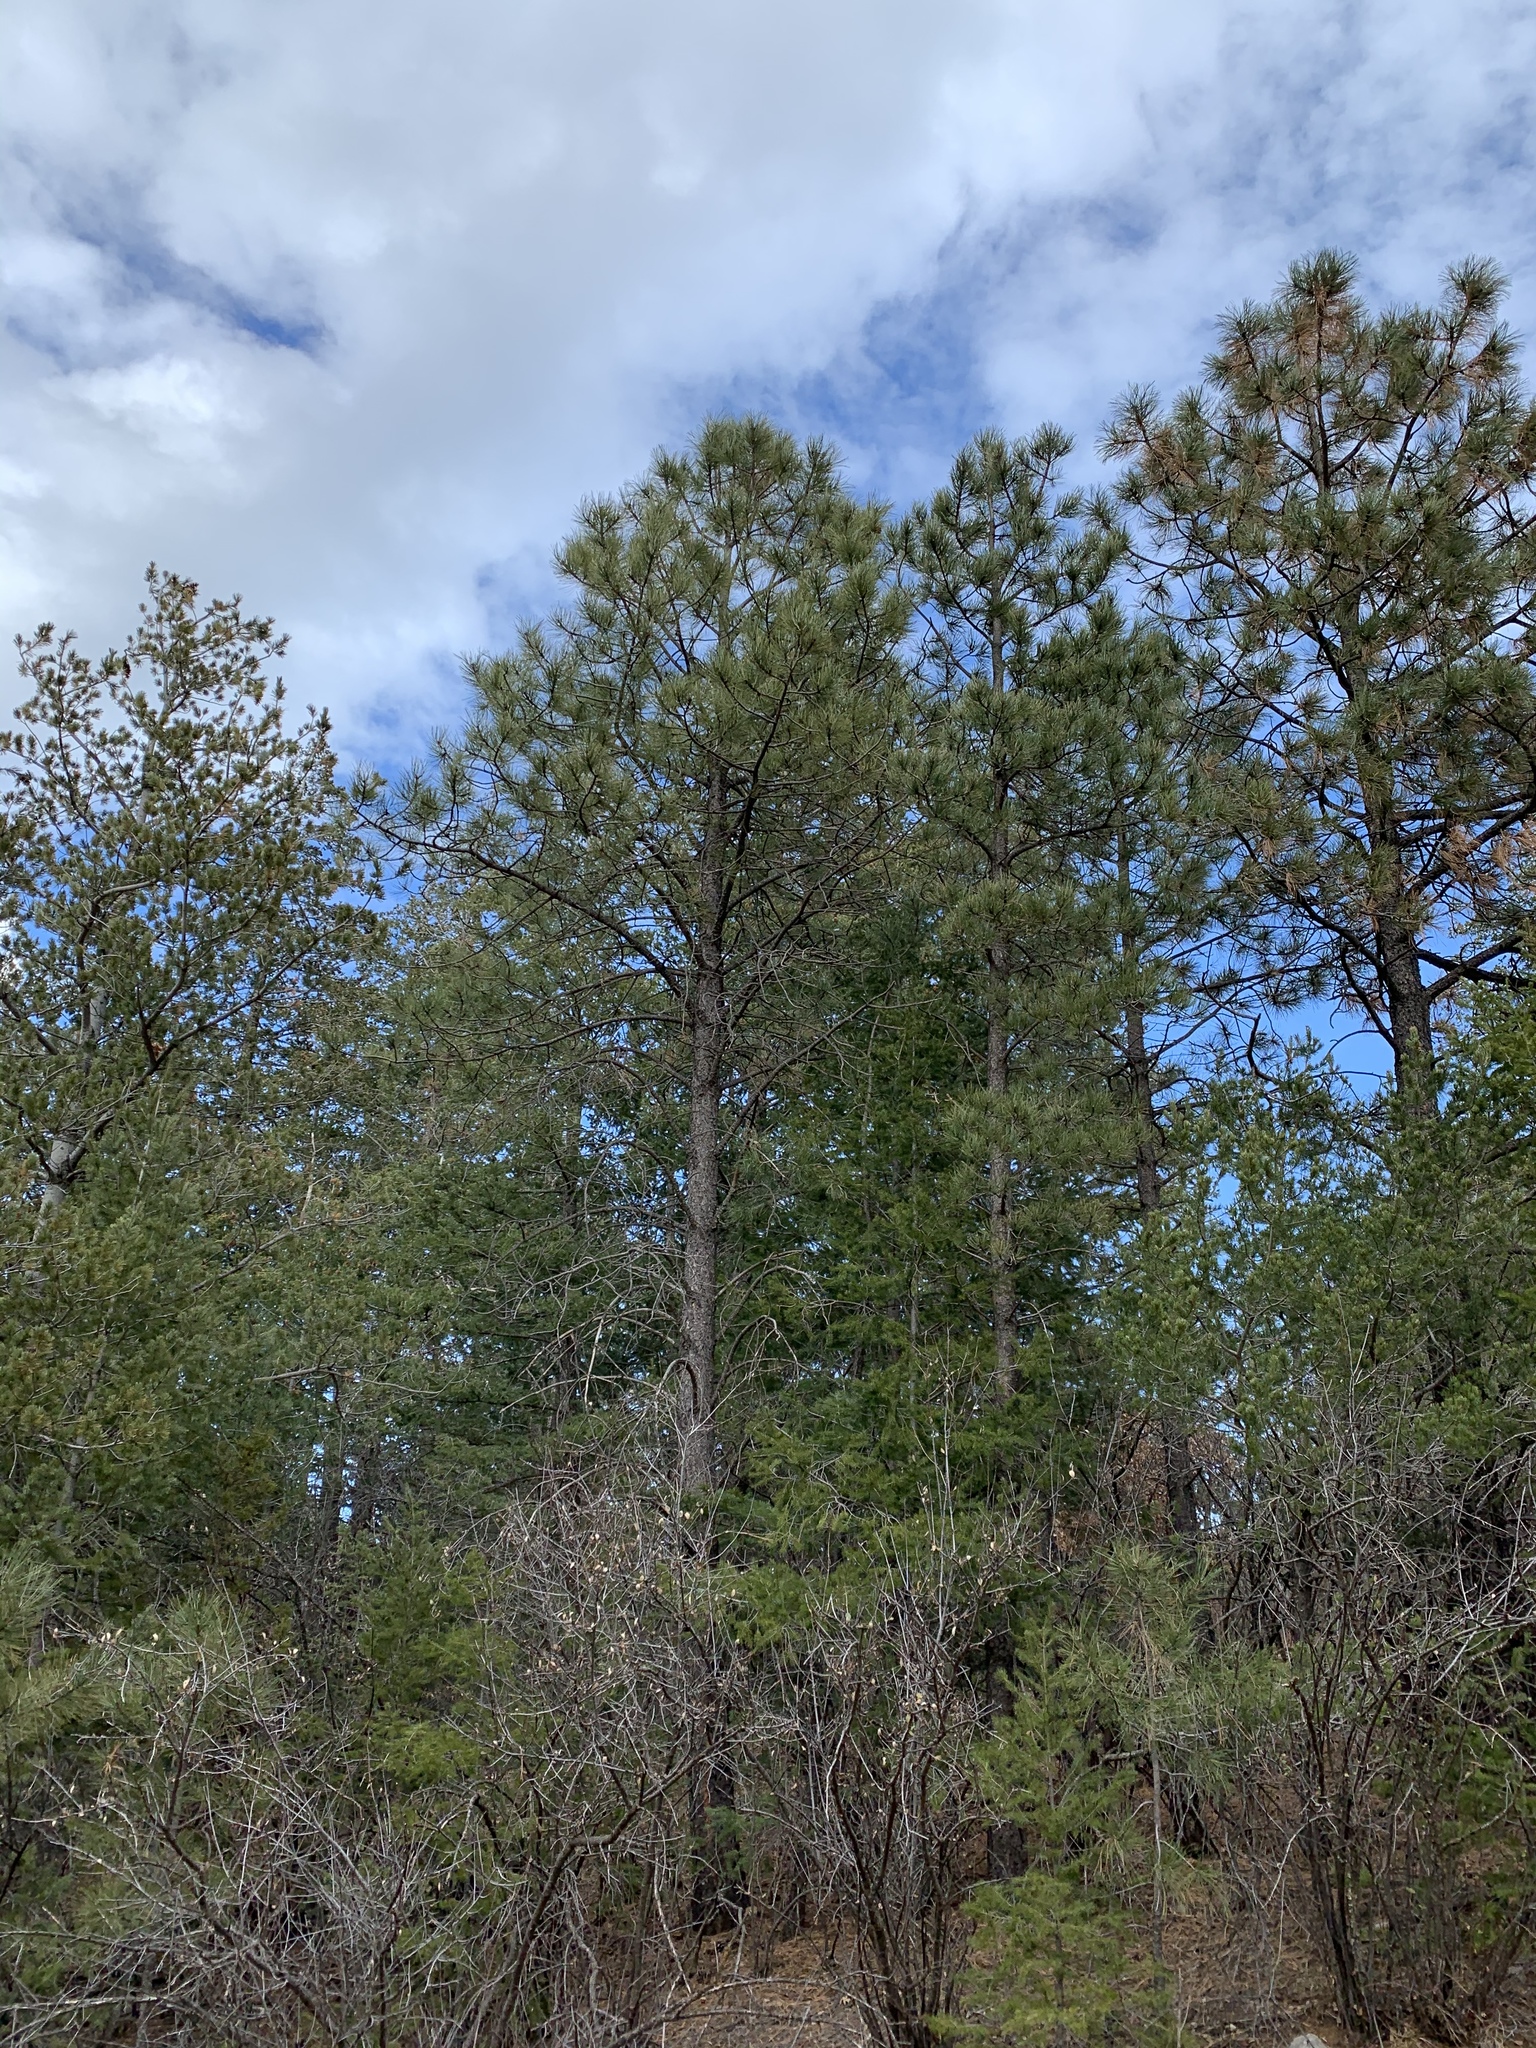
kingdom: Plantae
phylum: Tracheophyta
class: Pinopsida
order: Pinales
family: Pinaceae
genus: Pinus
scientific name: Pinus ponderosa
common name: Western yellow-pine
